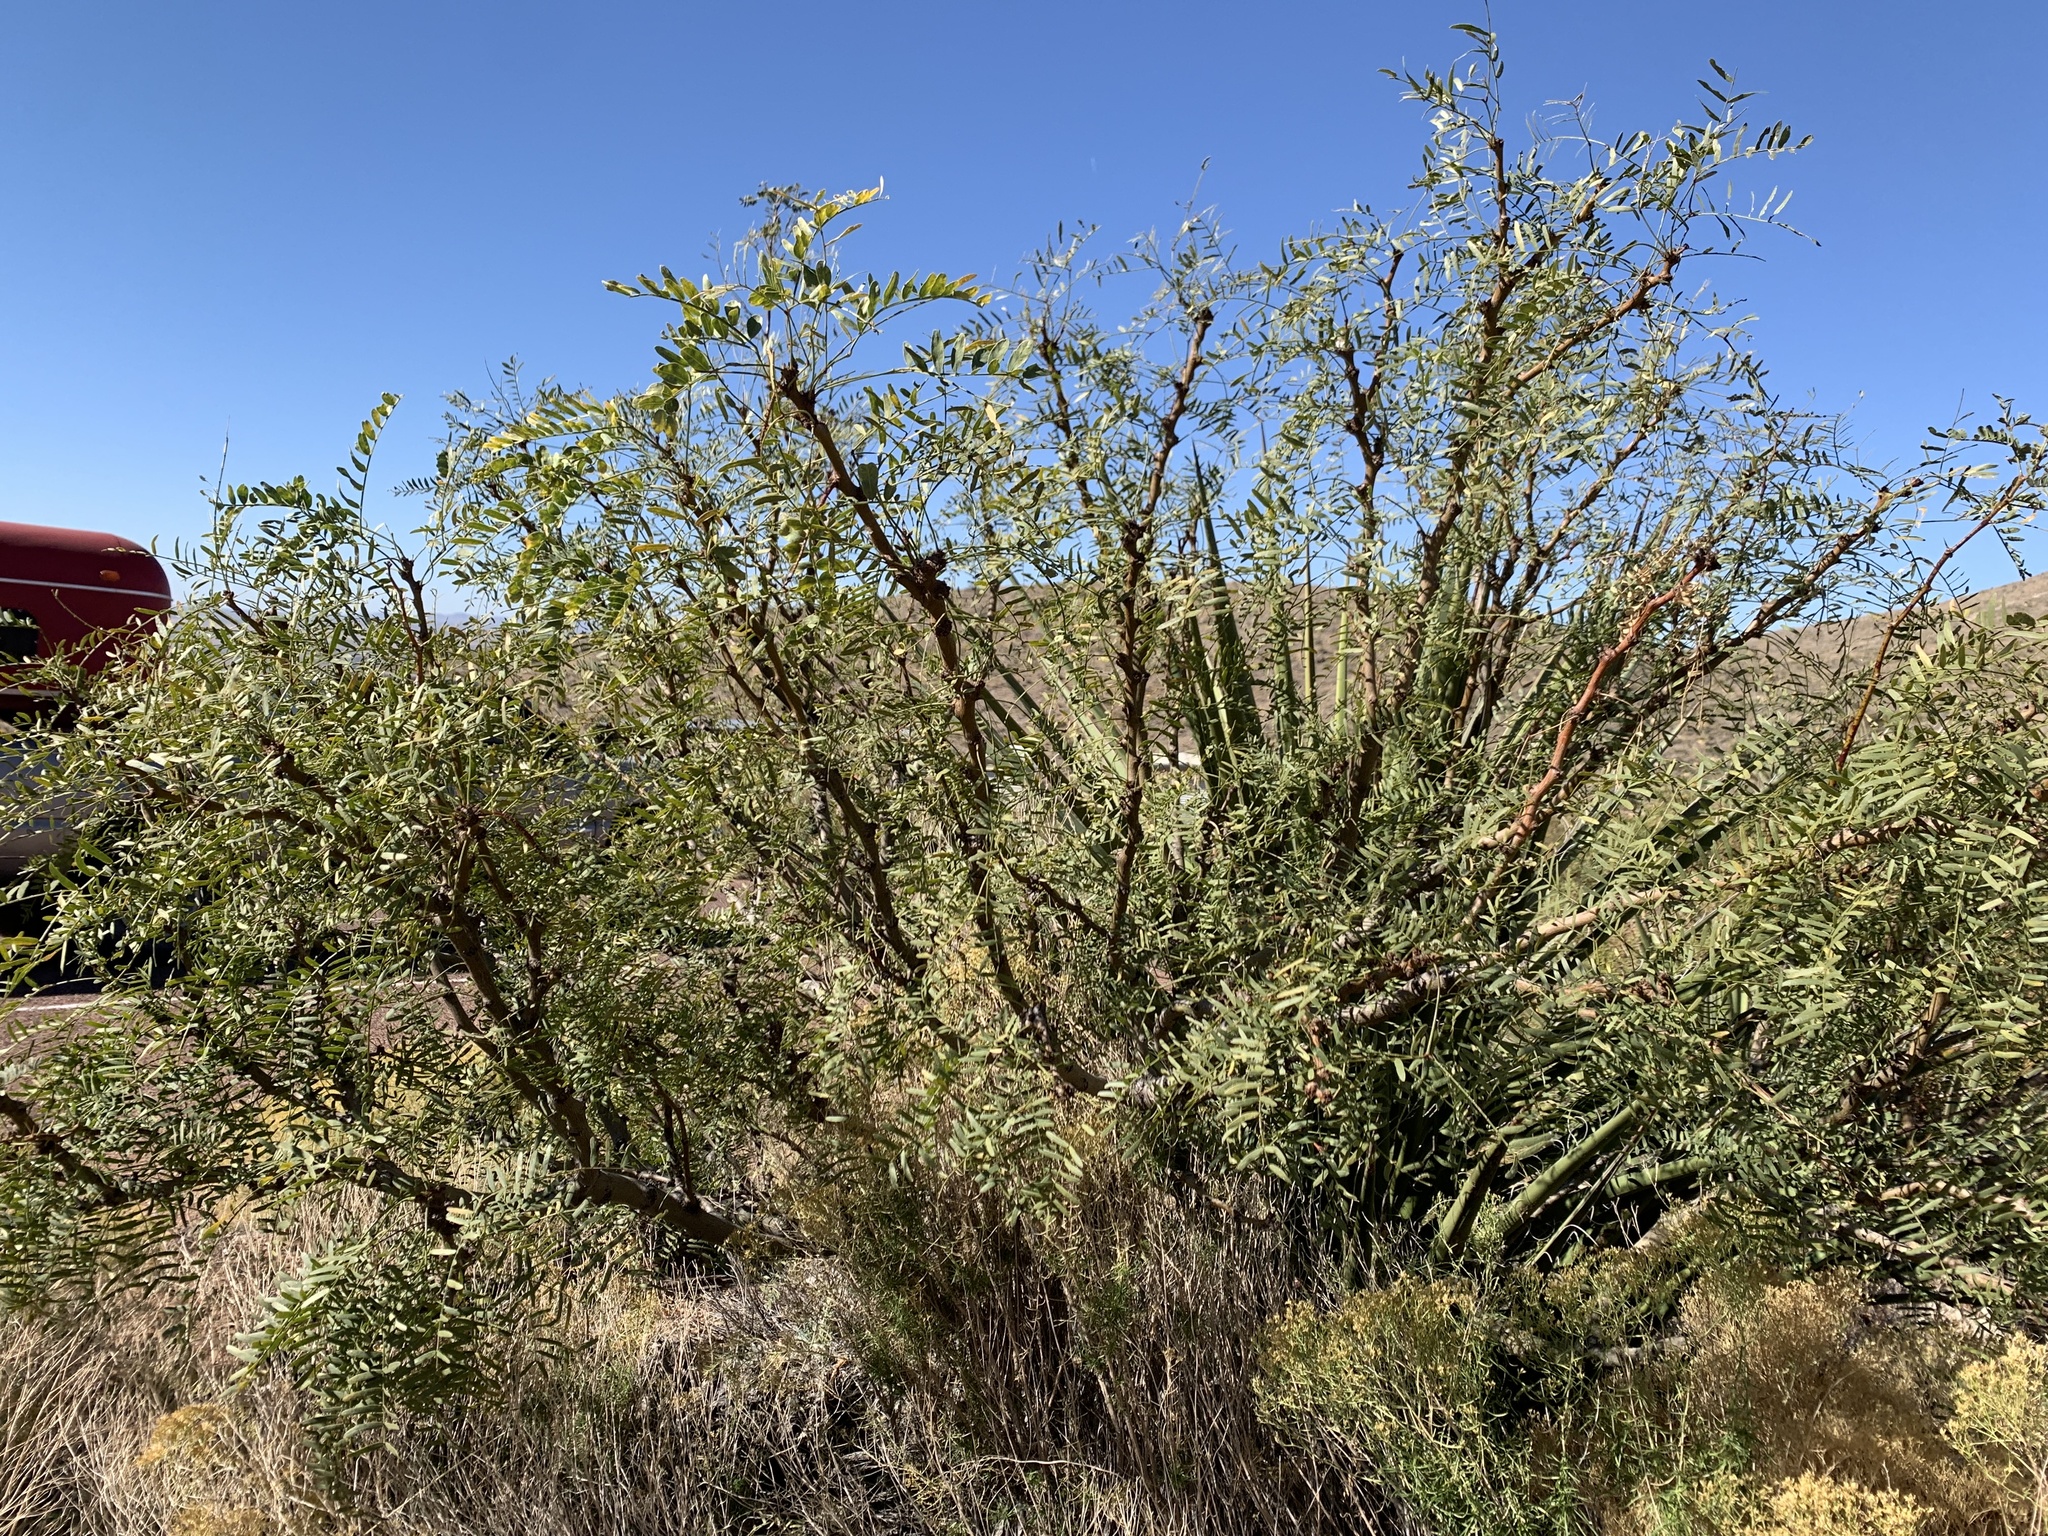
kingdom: Plantae
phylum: Tracheophyta
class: Magnoliopsida
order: Fabales
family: Fabaceae
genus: Prosopis
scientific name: Prosopis glandulosa
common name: Honey mesquite
